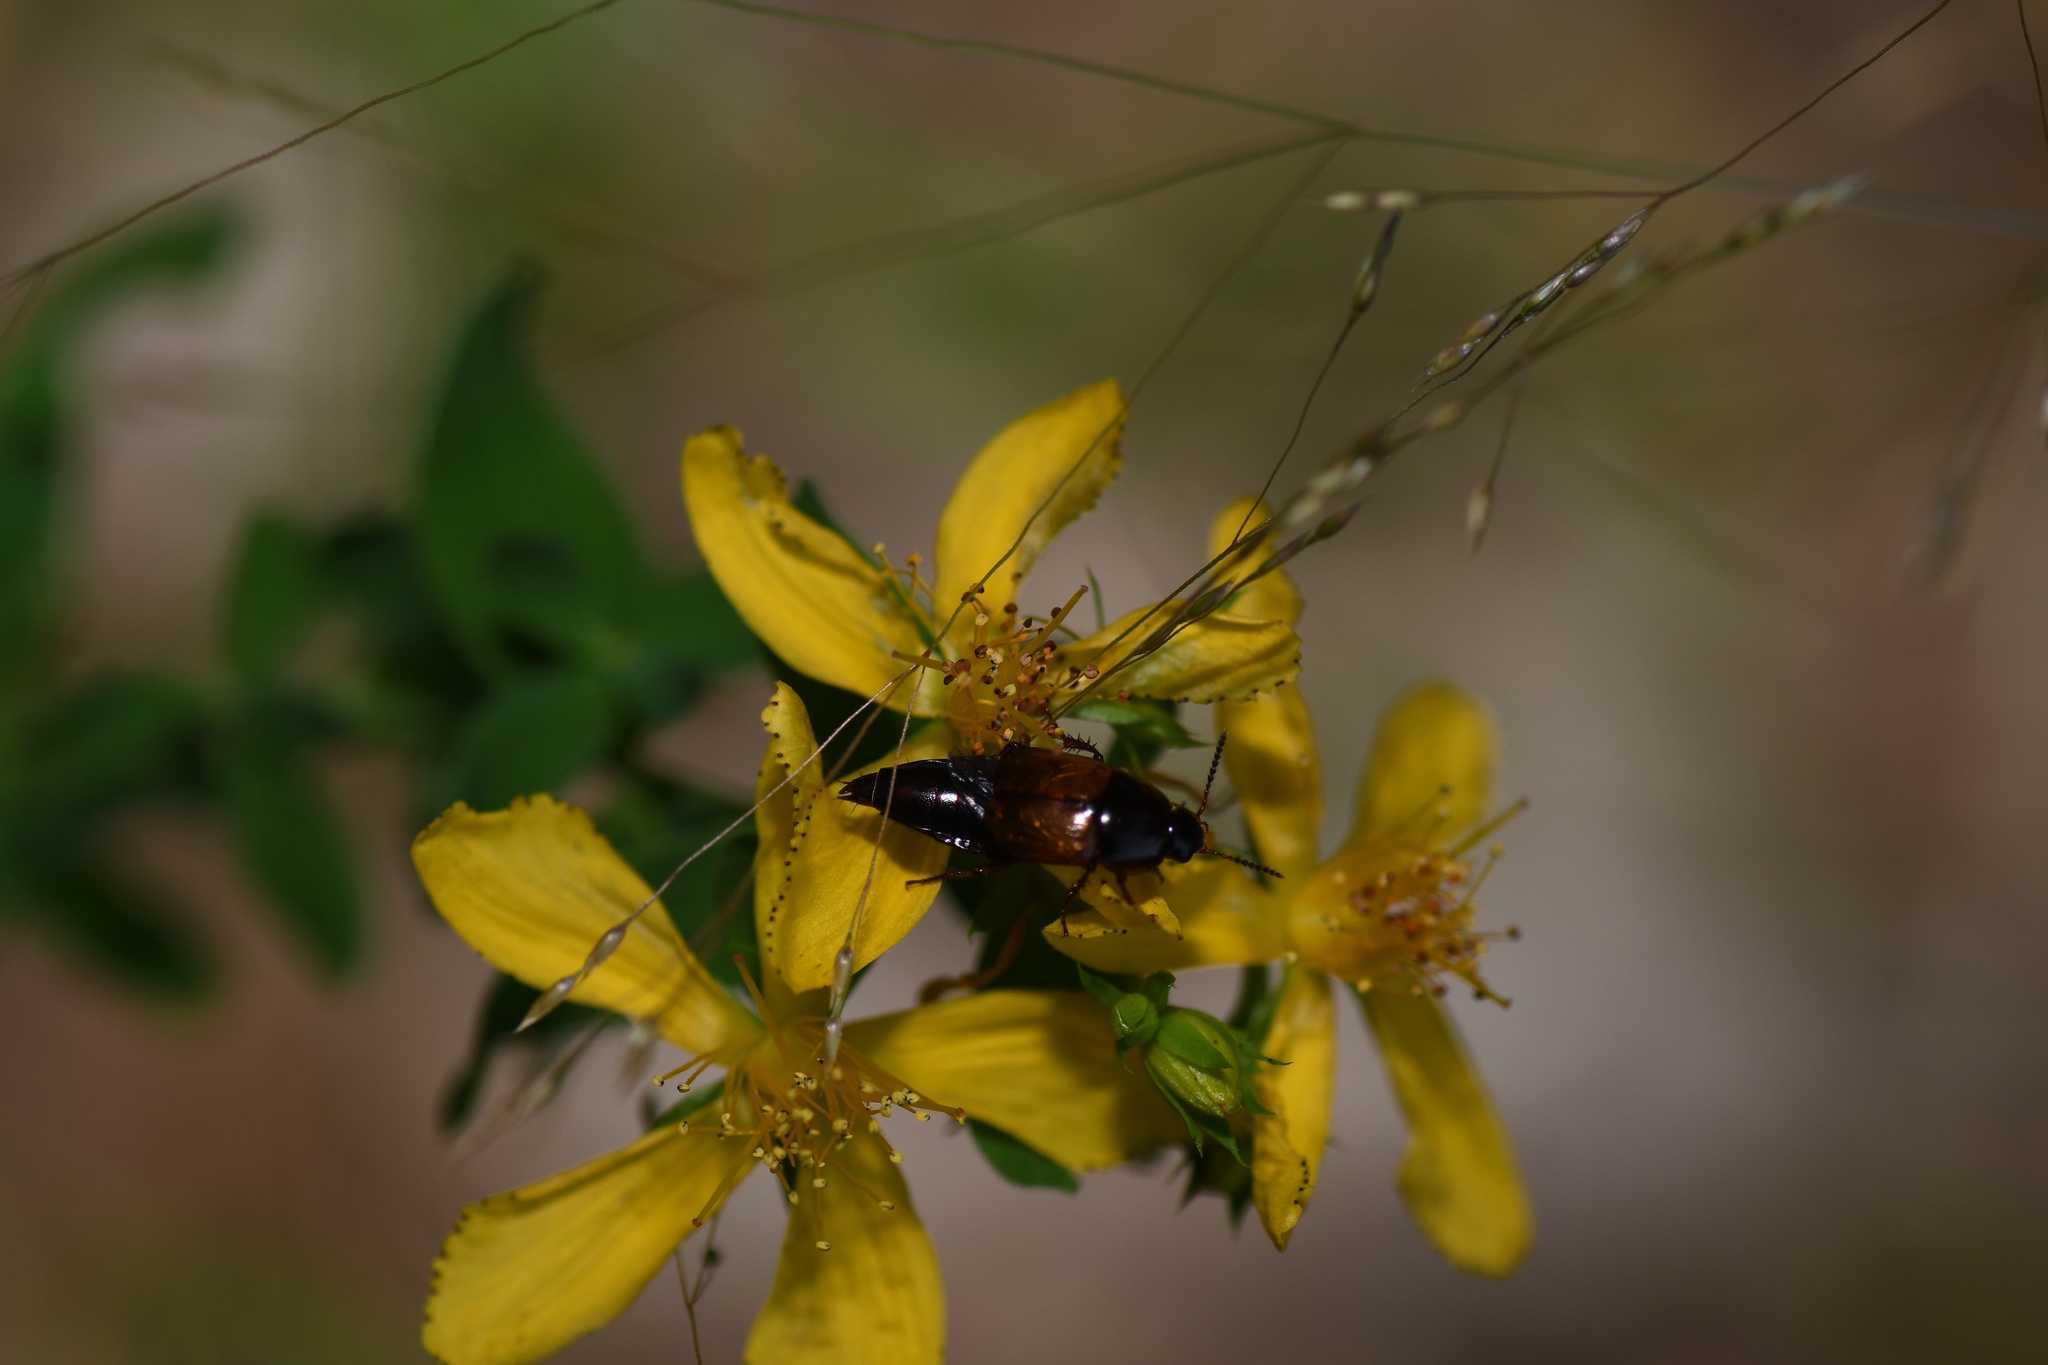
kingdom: Animalia
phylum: Arthropoda
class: Insecta
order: Coleoptera
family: Staphylinidae
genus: Tachinus
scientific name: Tachinus fimbriatus
